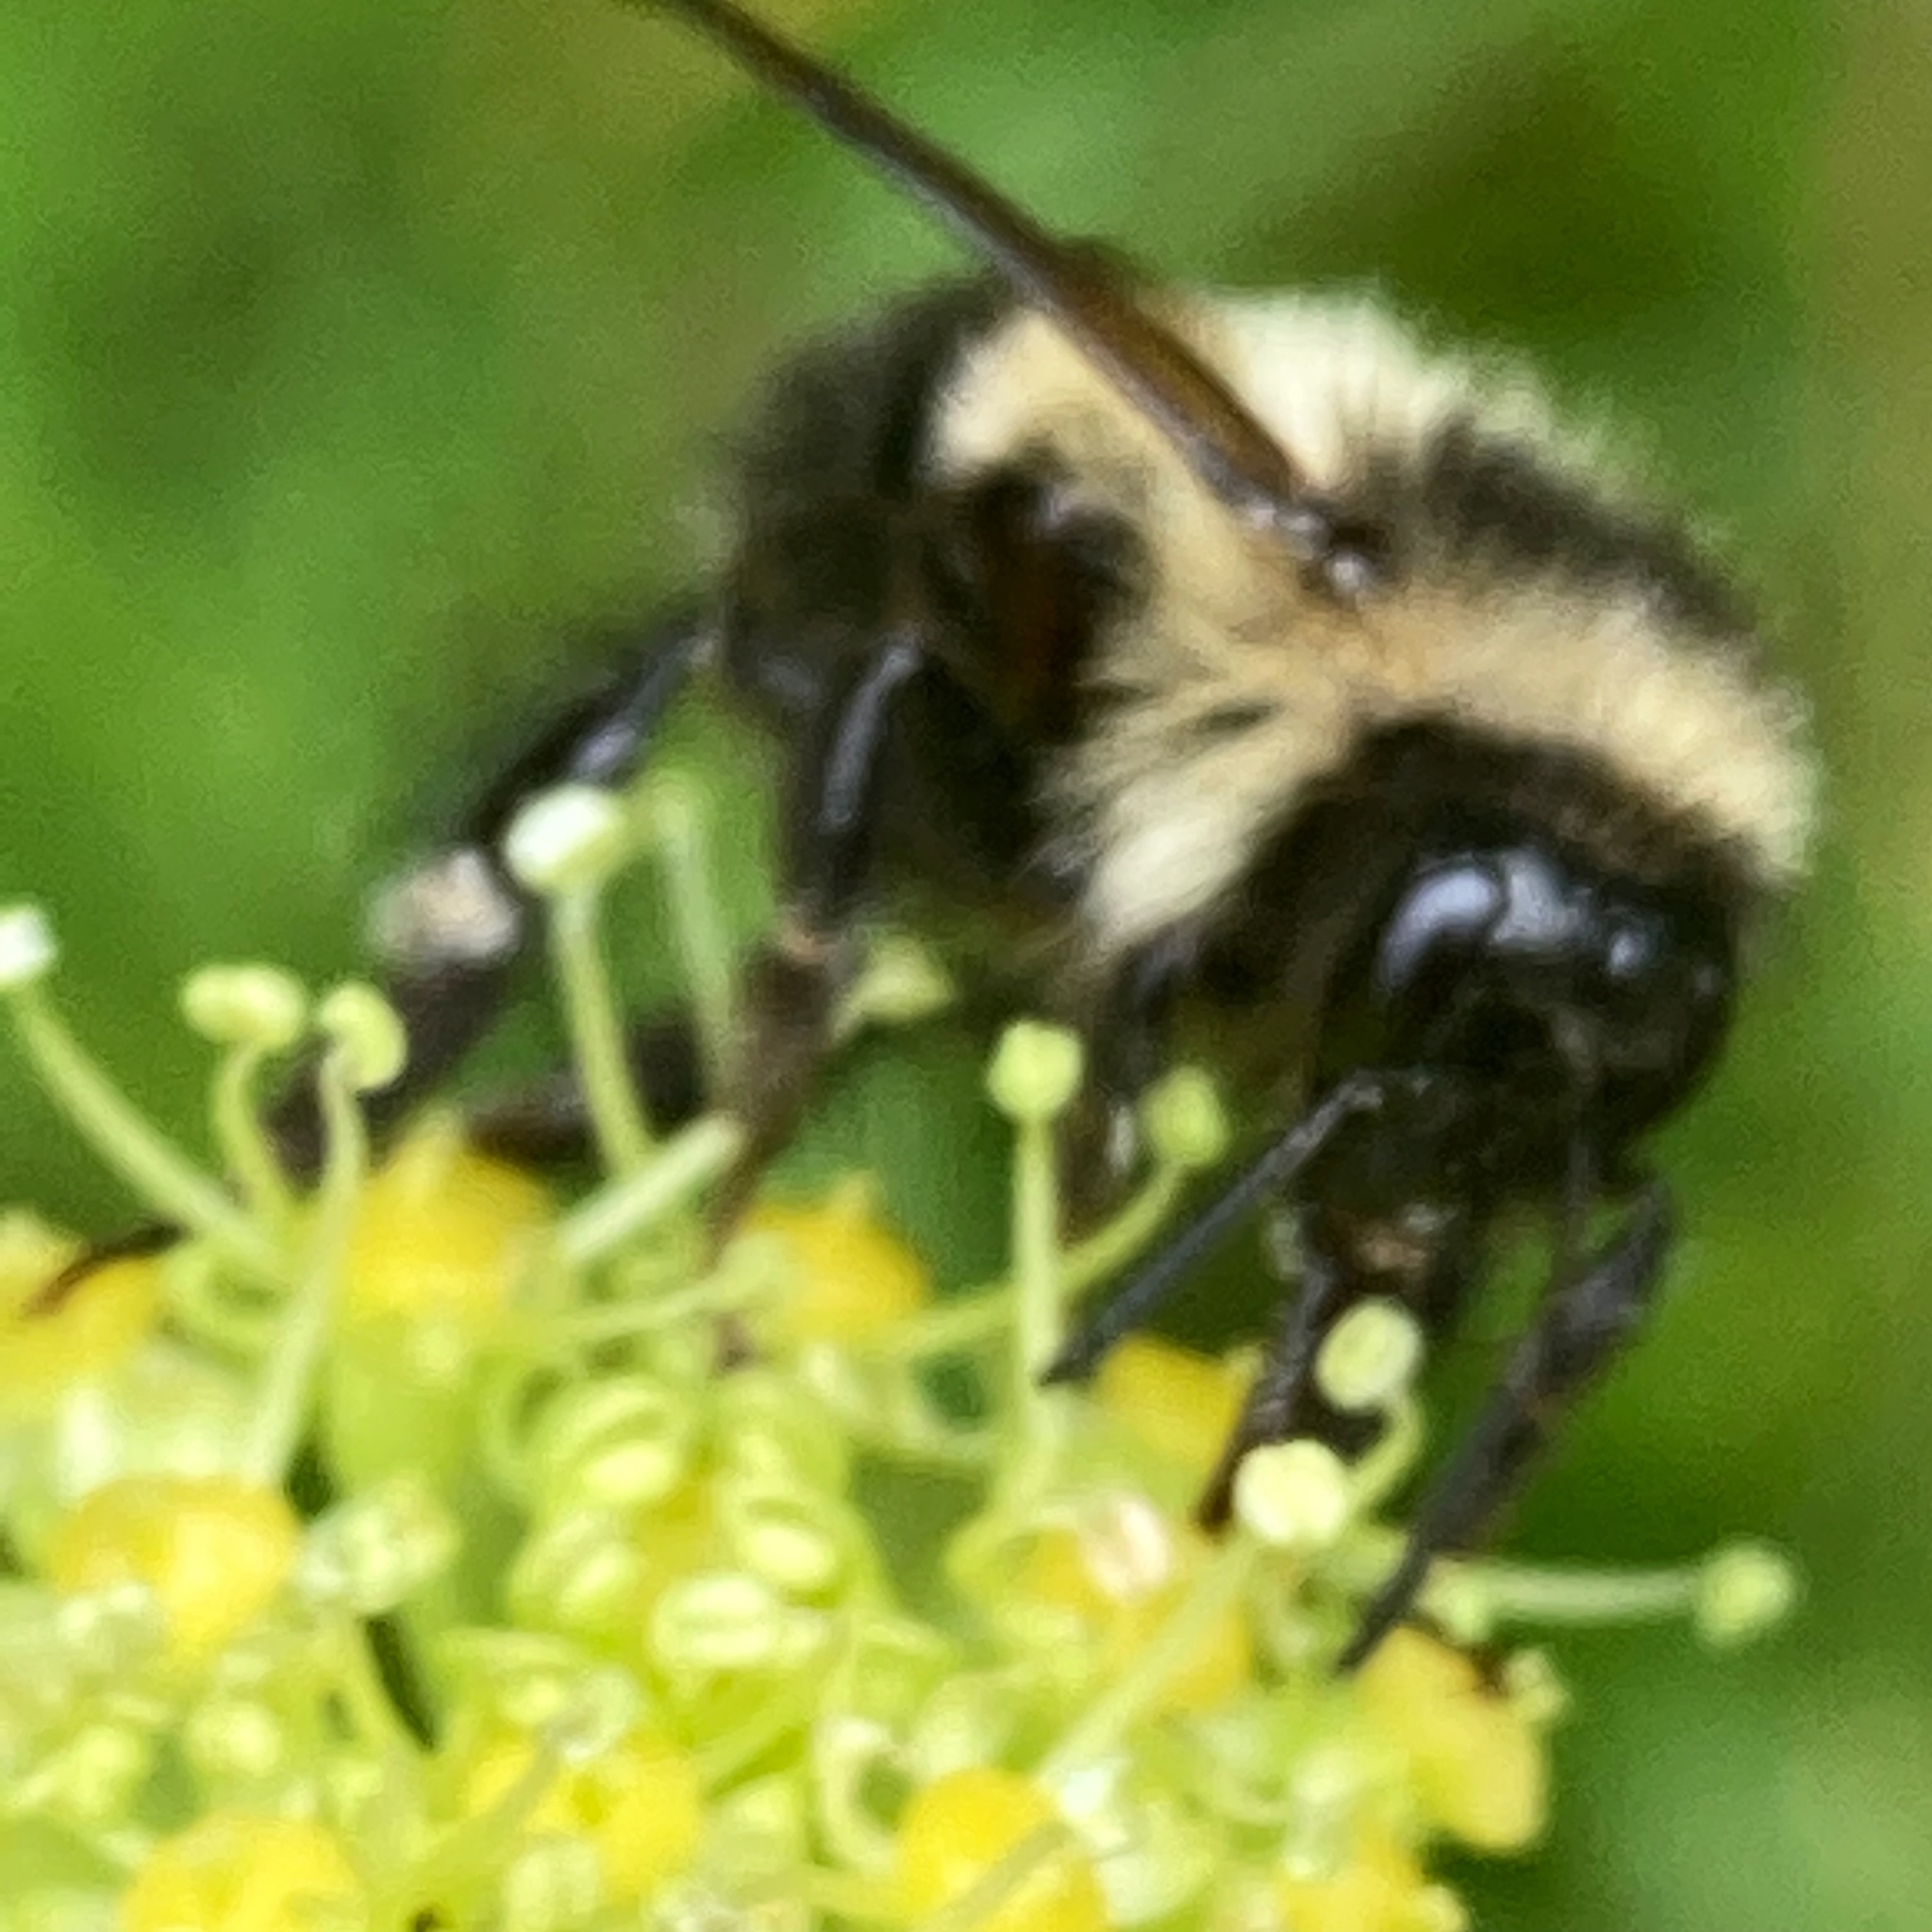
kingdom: Animalia
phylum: Arthropoda
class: Insecta
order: Hymenoptera
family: Apidae
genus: Pyrobombus
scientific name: Pyrobombus
